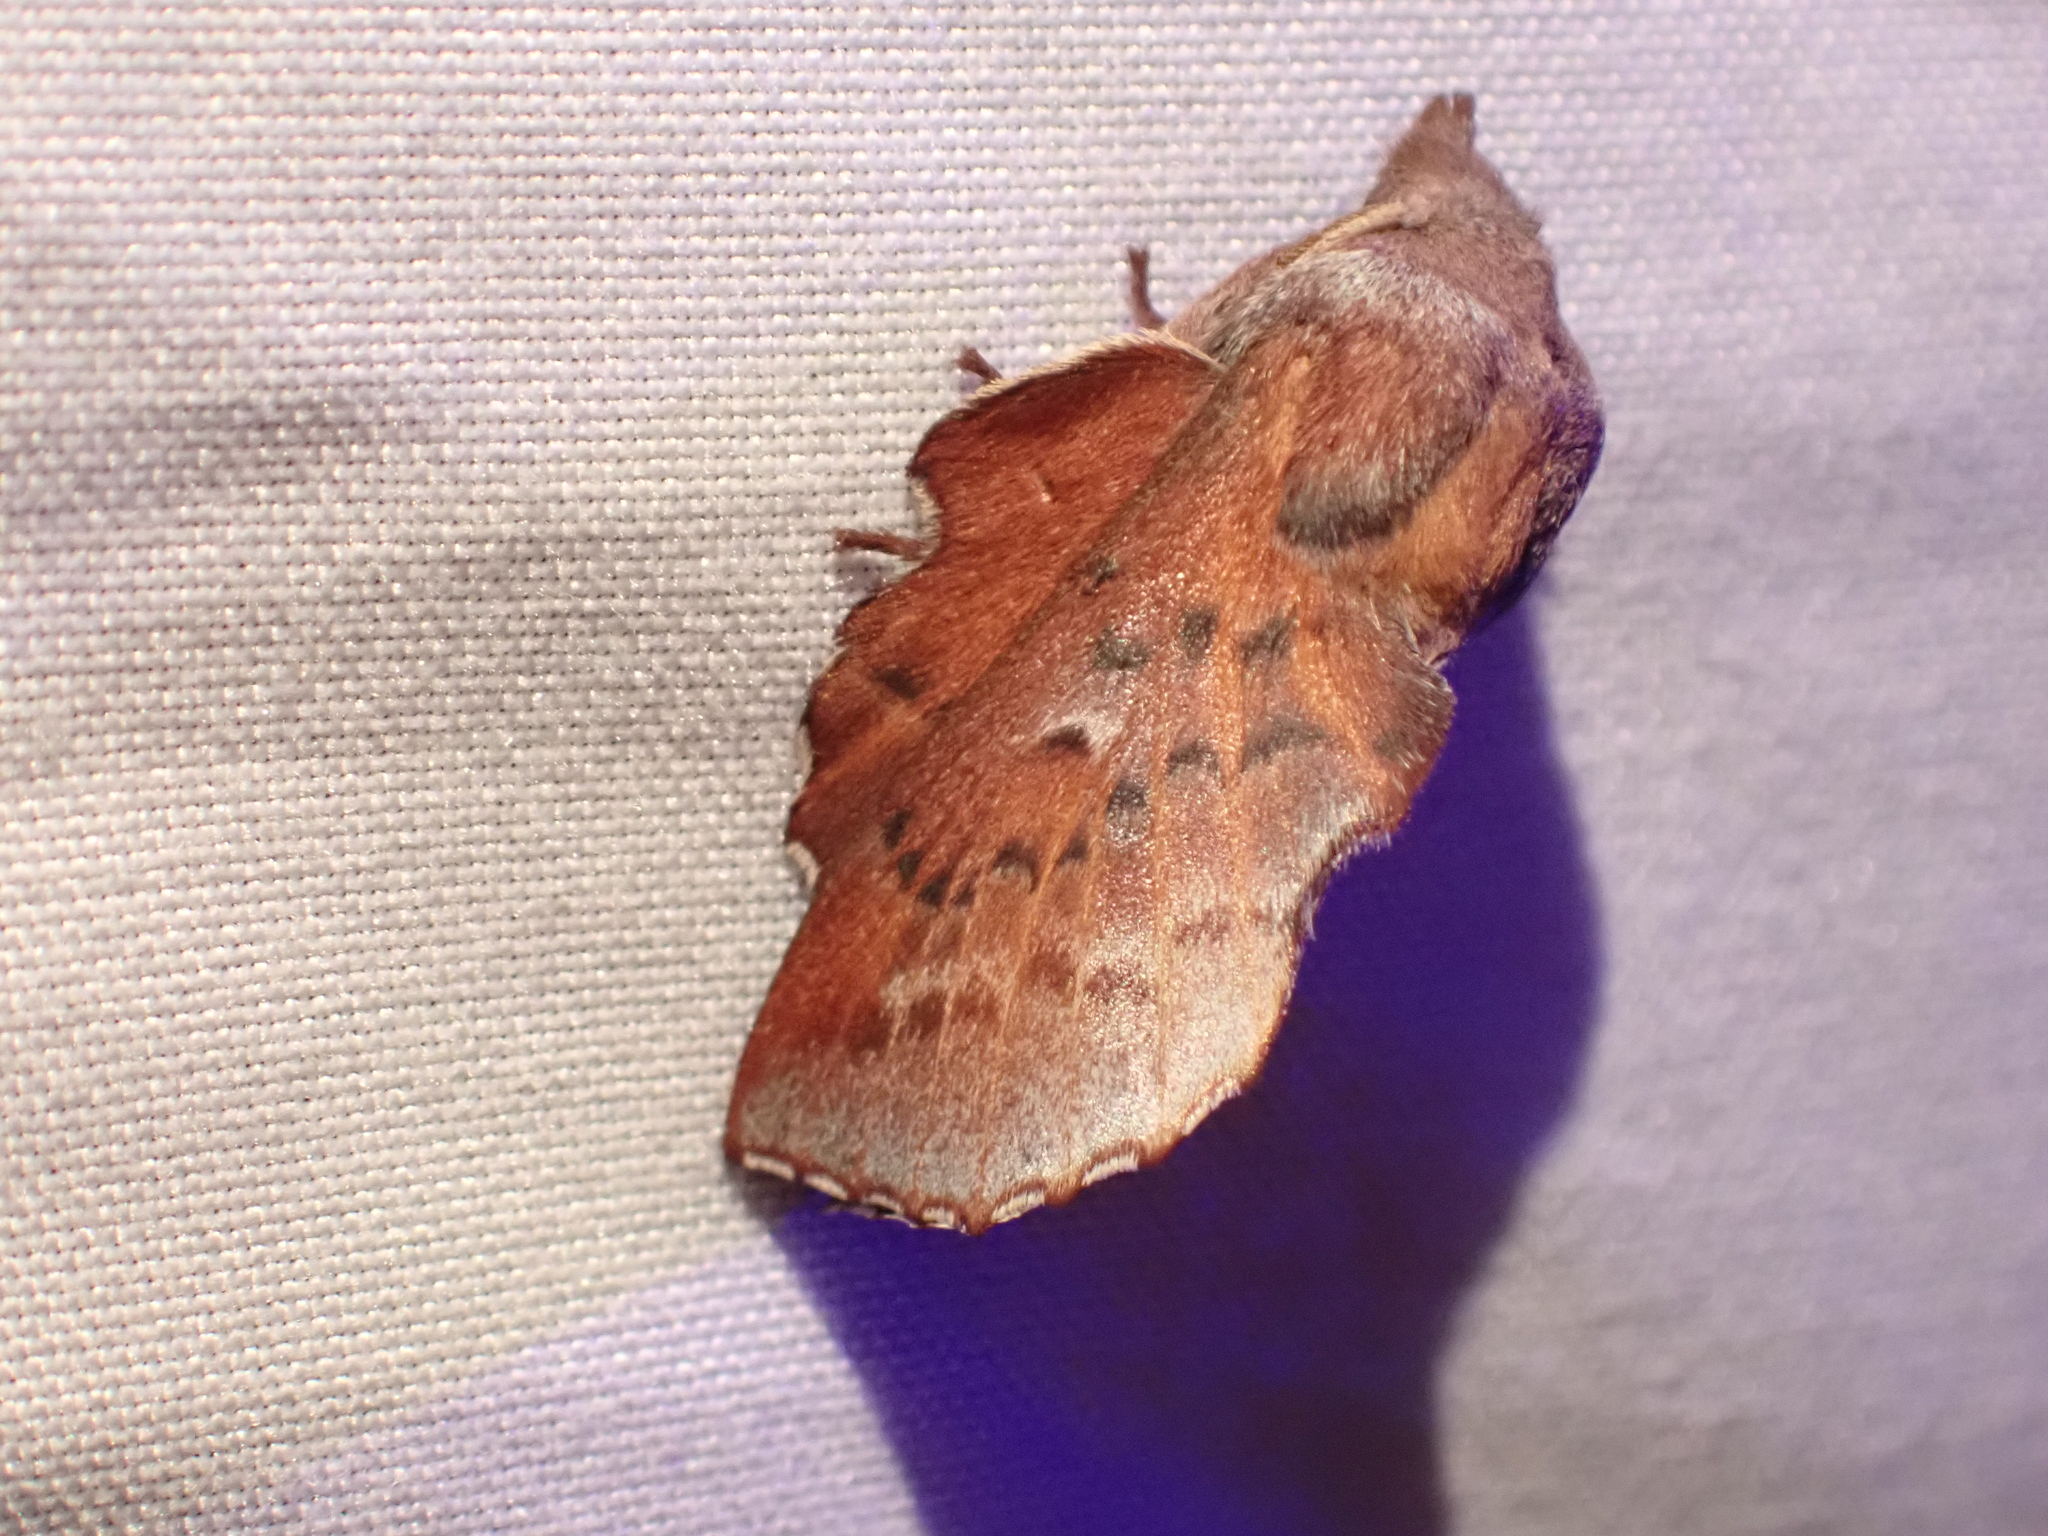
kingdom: Animalia
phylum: Arthropoda
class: Insecta
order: Lepidoptera
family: Lasiocampidae
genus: Phyllodesma
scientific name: Phyllodesma americana
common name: American lappet moth
